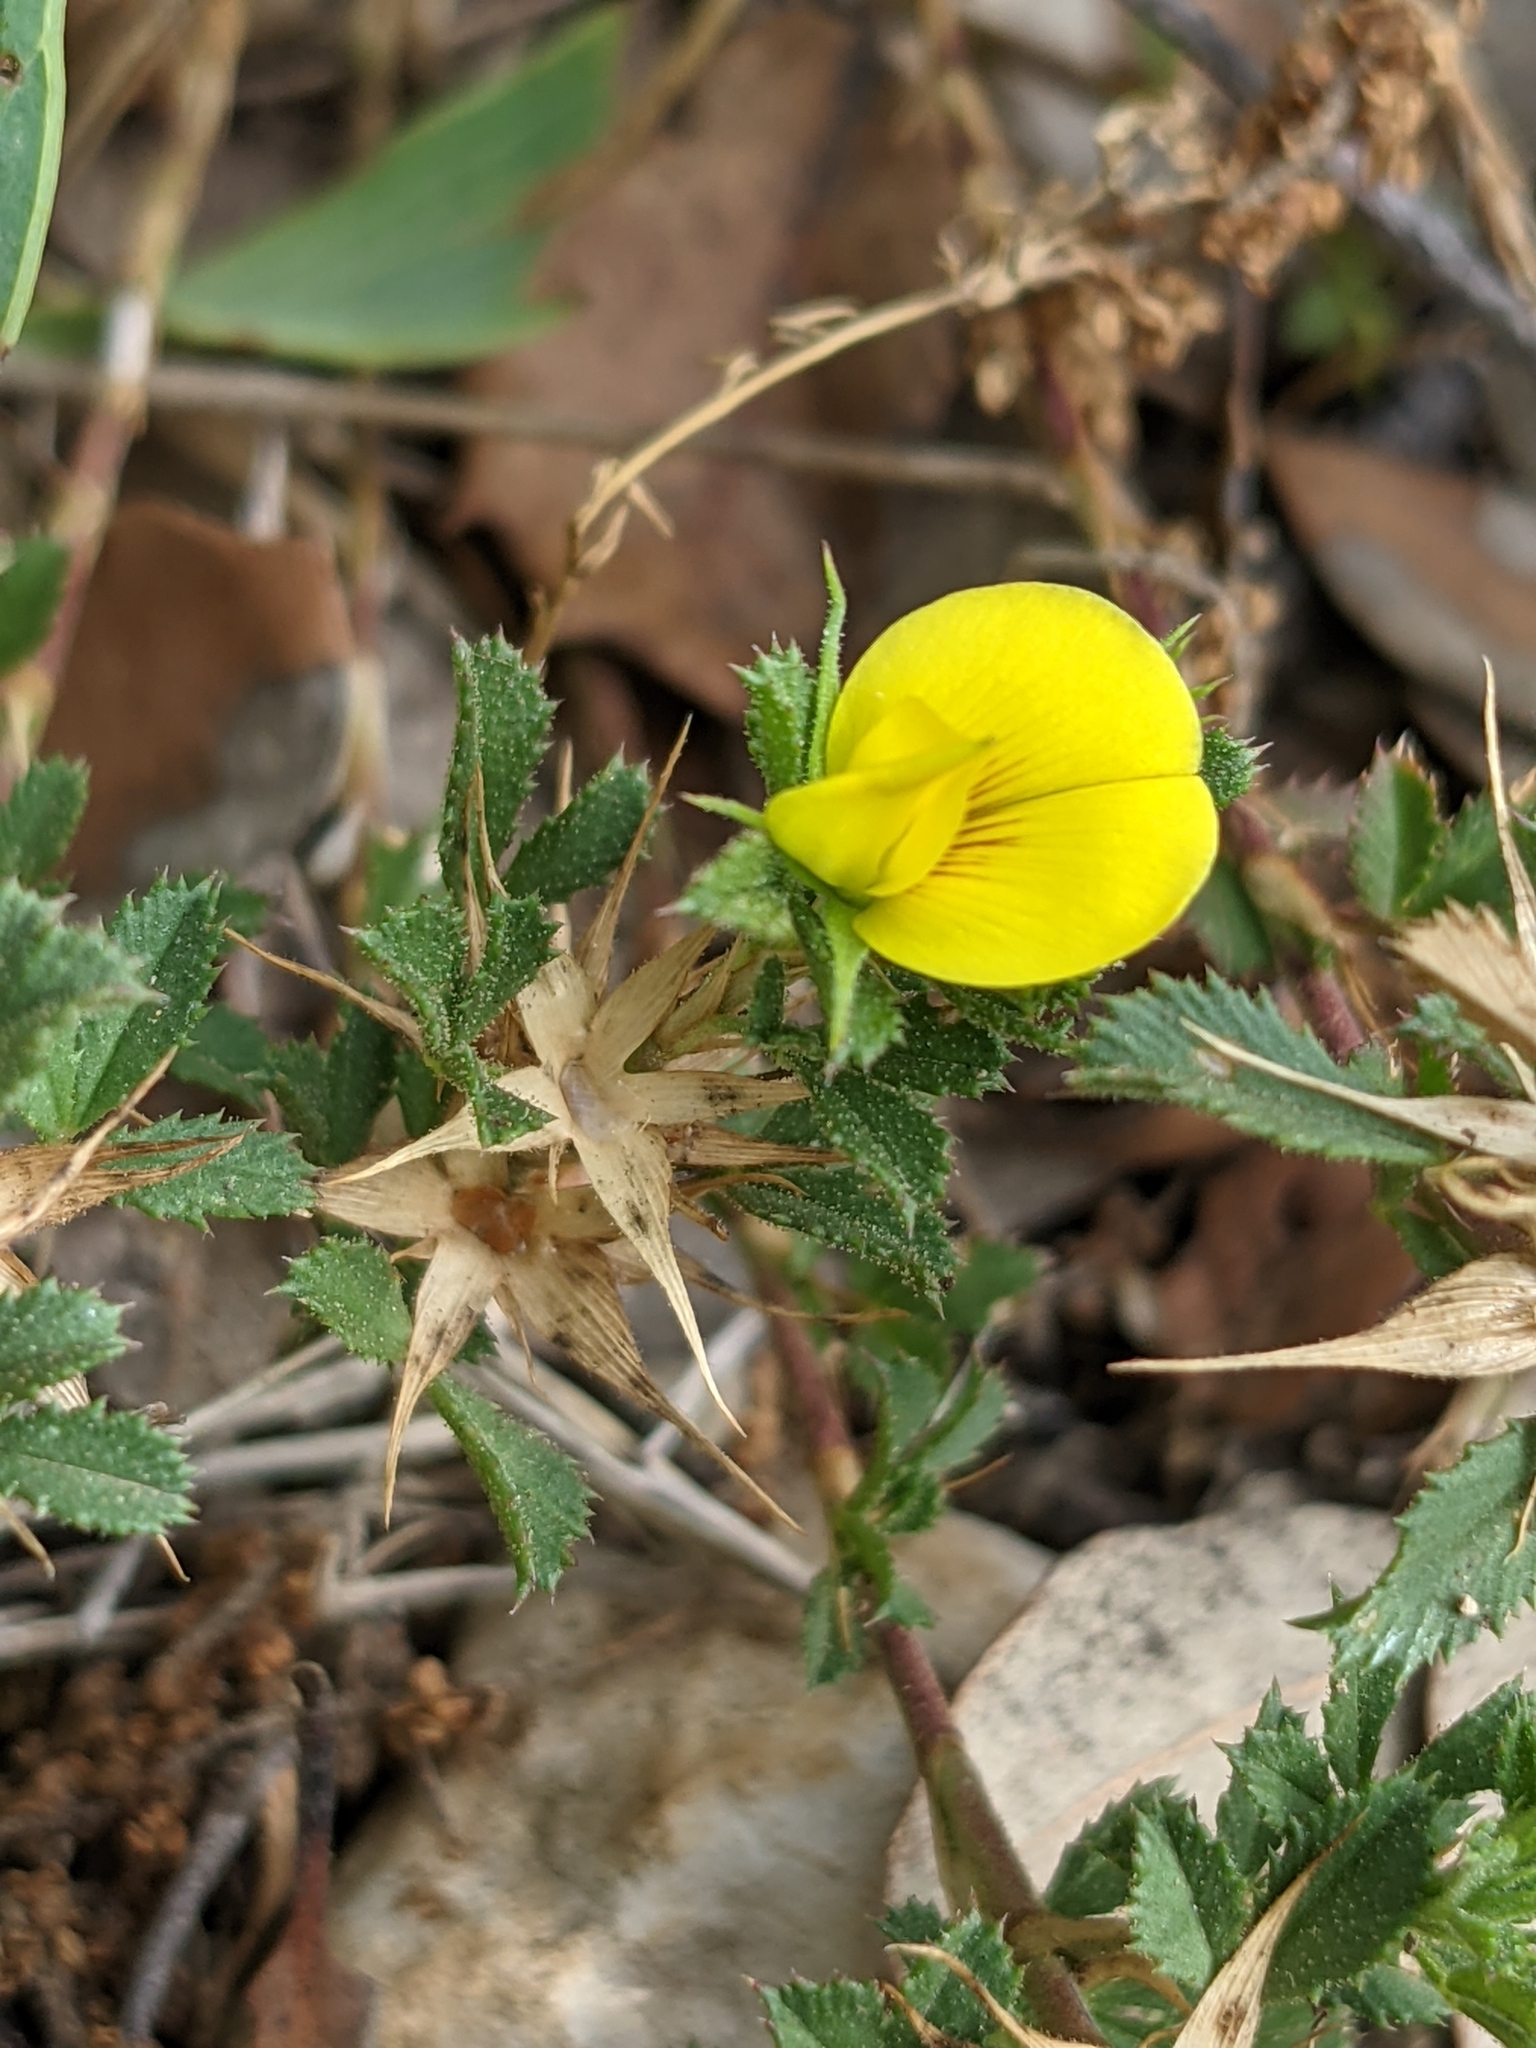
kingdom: Plantae
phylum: Tracheophyta
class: Magnoliopsida
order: Fabales
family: Fabaceae
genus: Ononis
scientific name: Ononis minutissima
